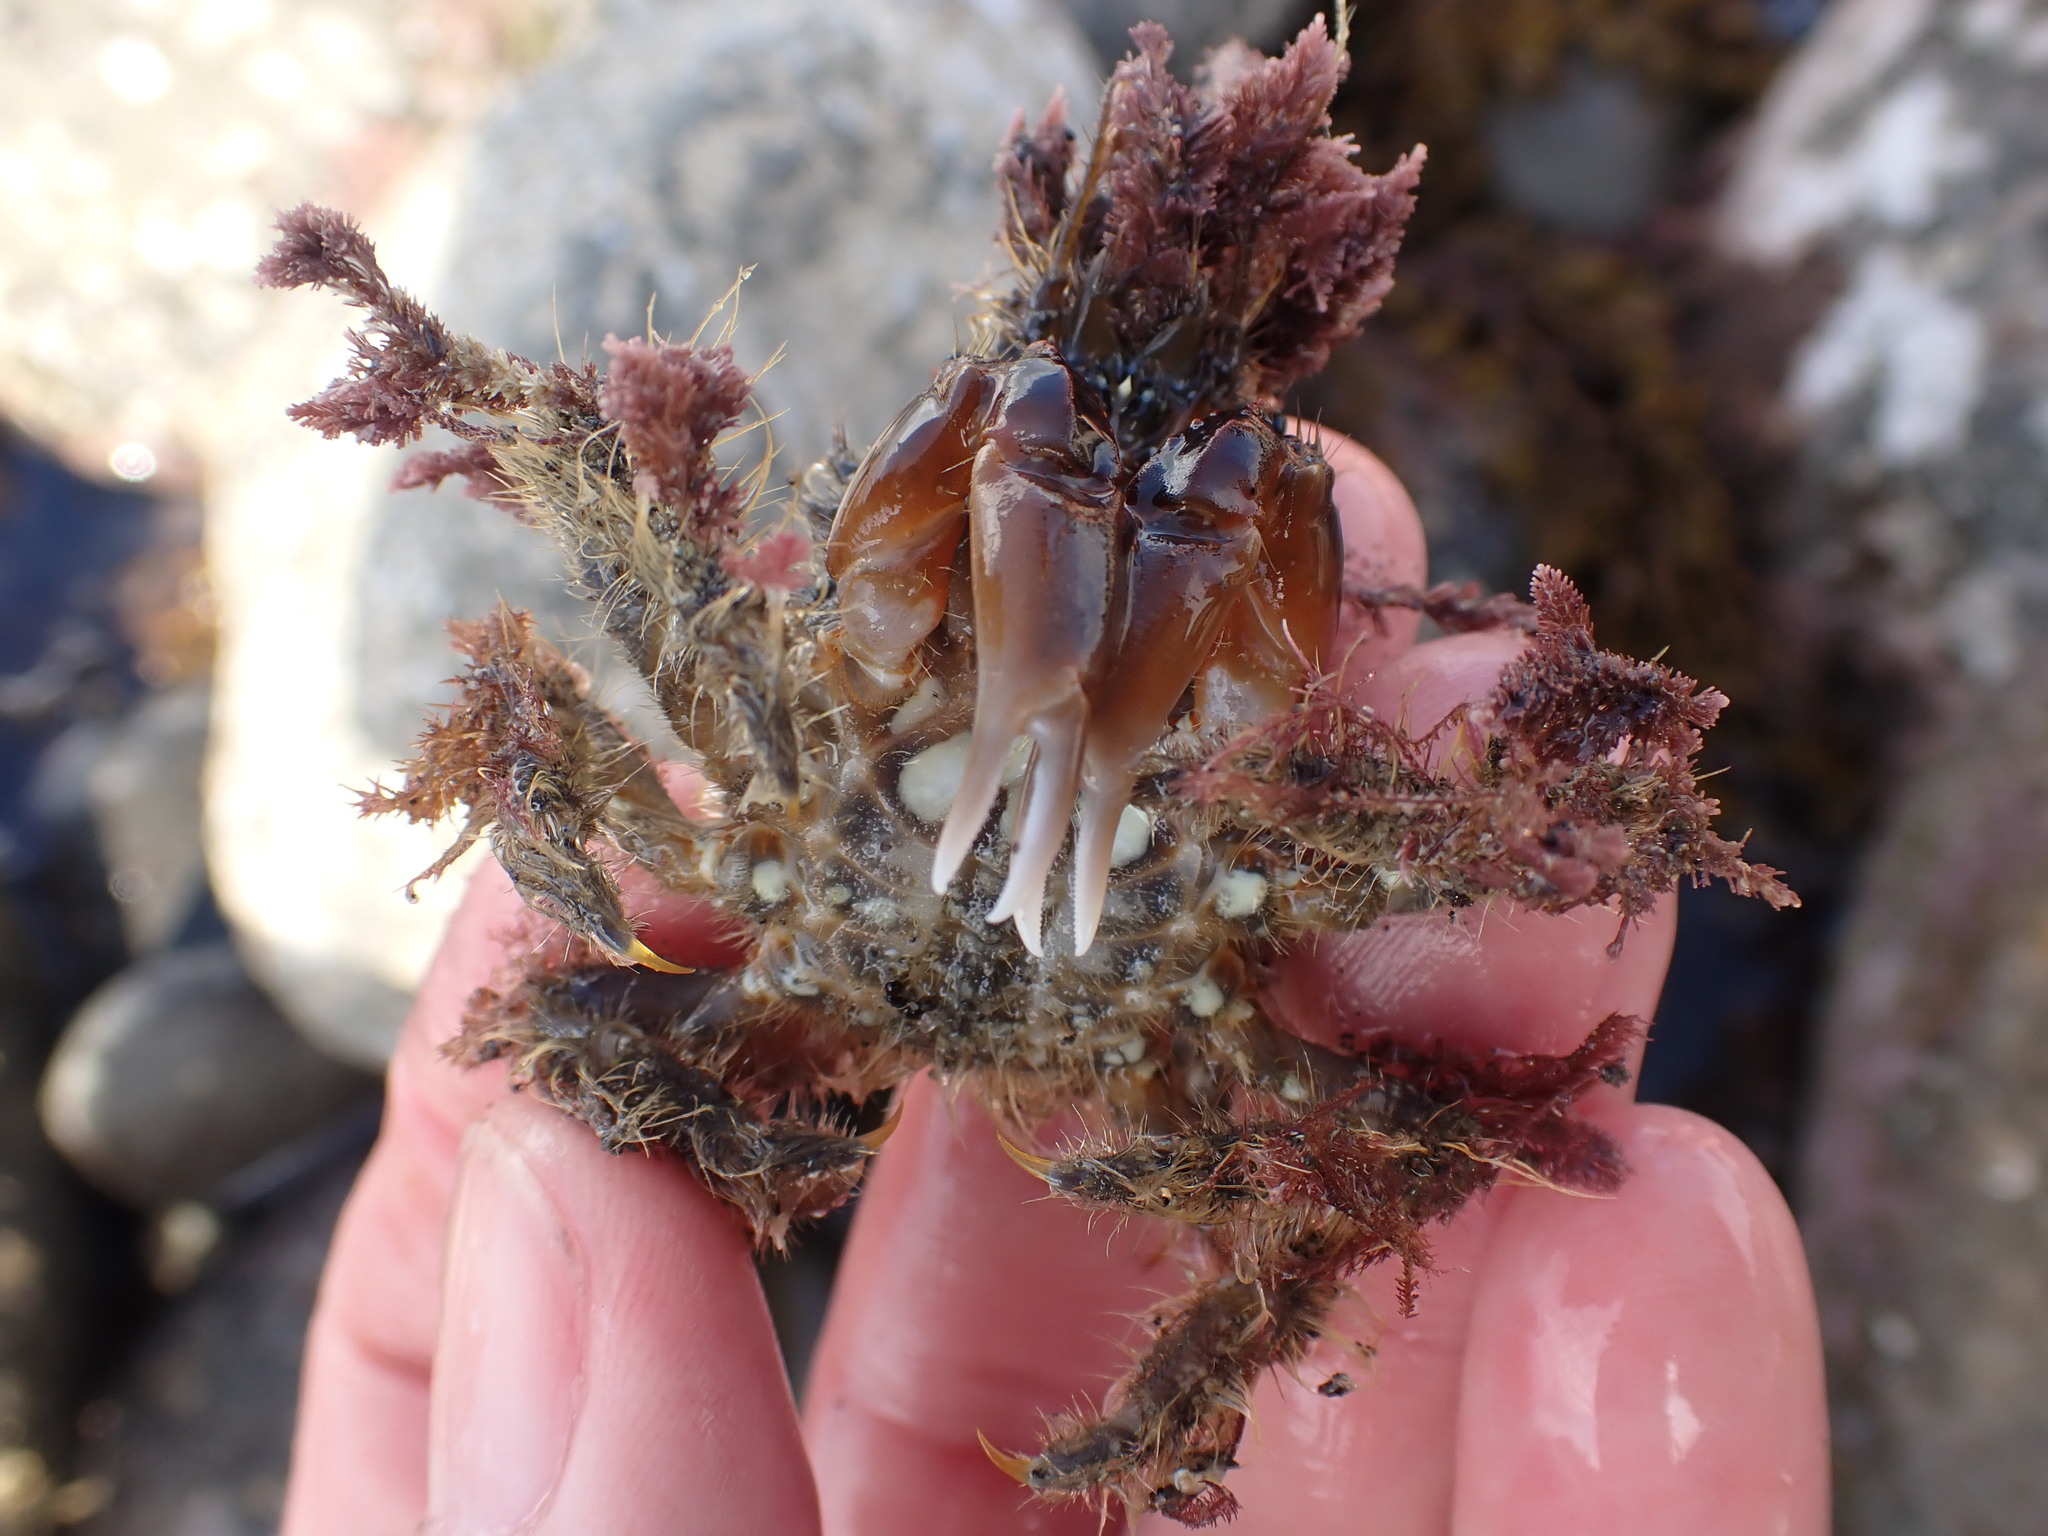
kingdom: Animalia
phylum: Arthropoda
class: Malacostraca
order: Decapoda
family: Majidae
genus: Notomithrax
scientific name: Notomithrax ursus
